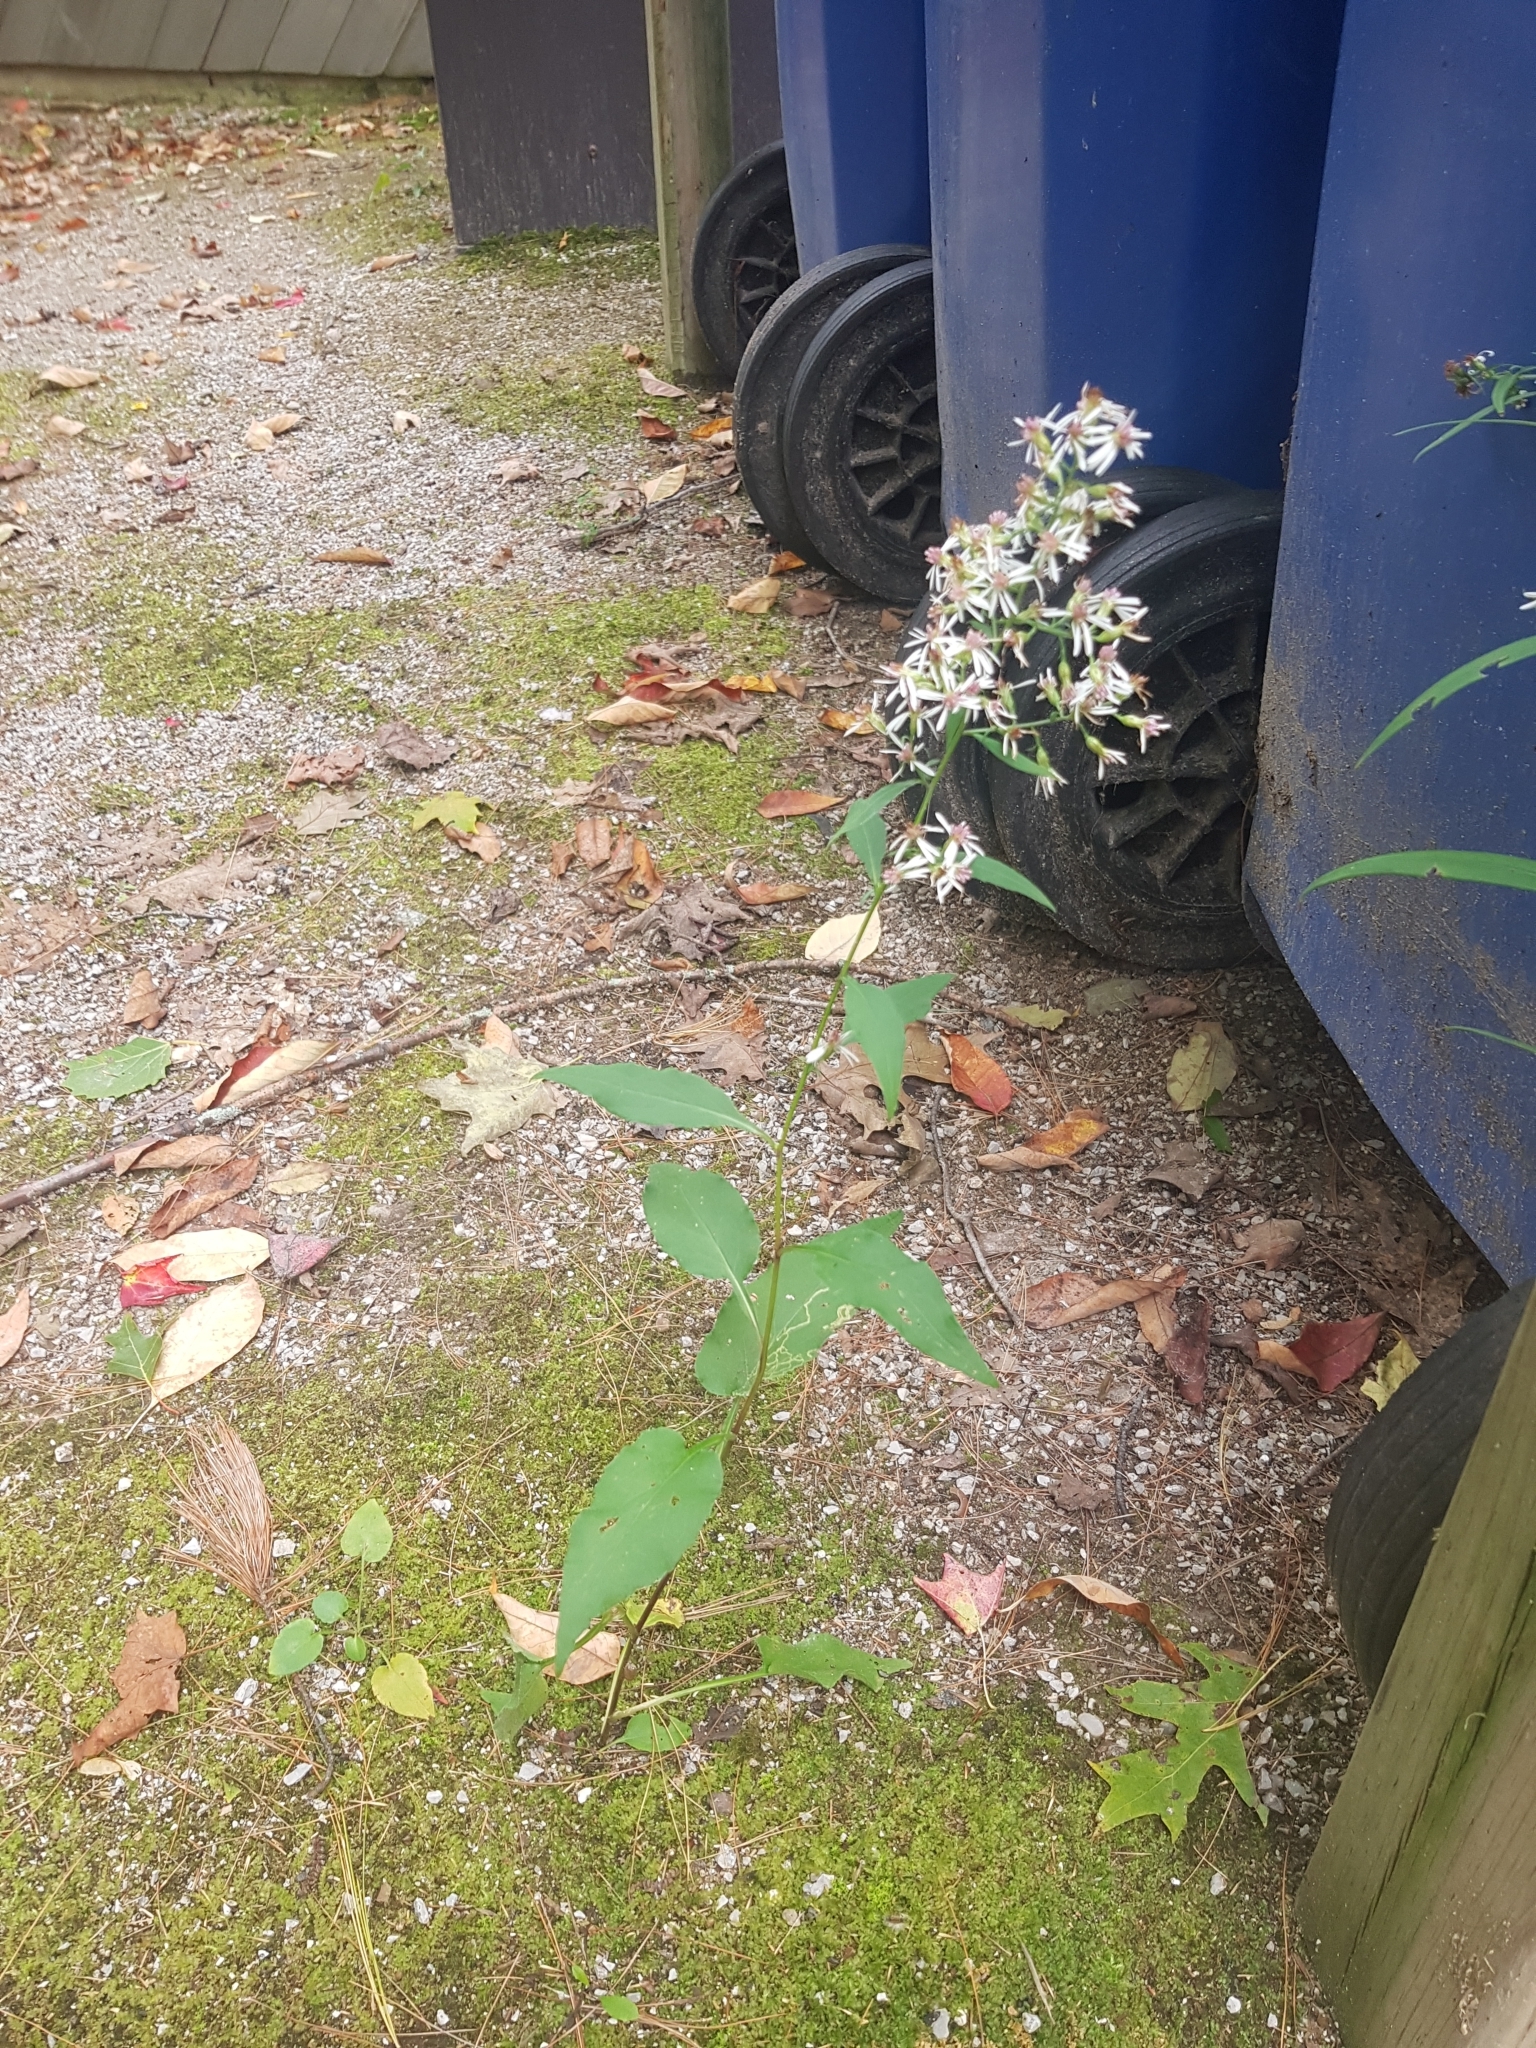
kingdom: Plantae
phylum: Tracheophyta
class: Magnoliopsida
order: Asterales
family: Asteraceae
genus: Symphyotrichum
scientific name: Symphyotrichum urophyllum
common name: Arrow-leaved aster
